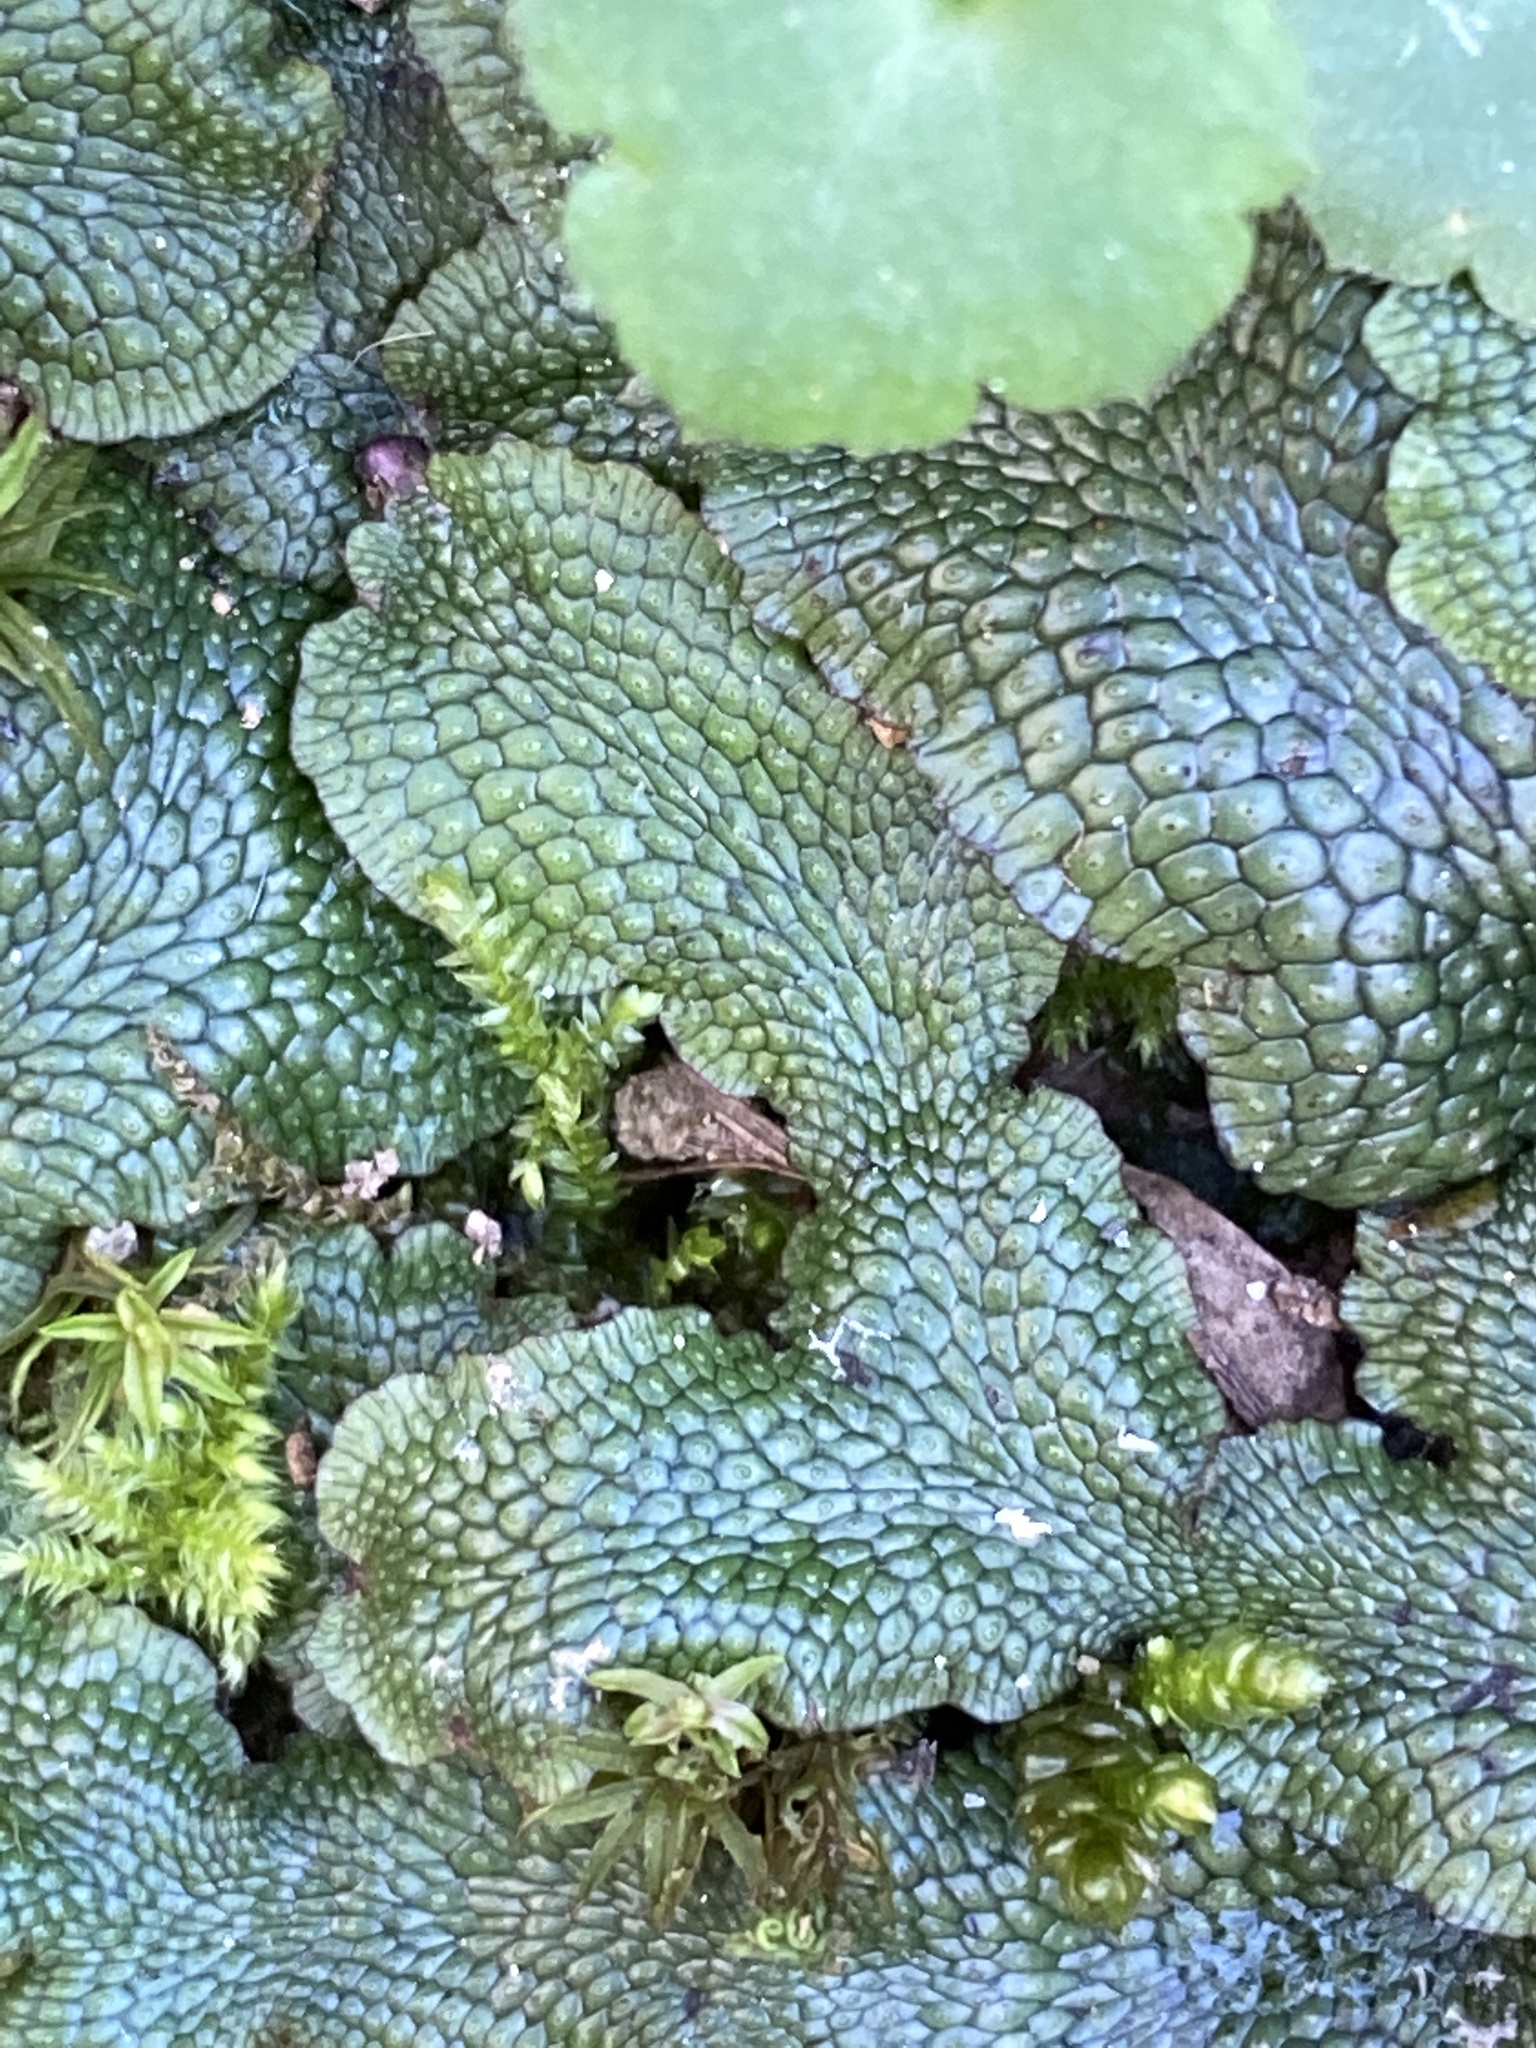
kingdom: Plantae
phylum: Marchantiophyta
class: Marchantiopsida
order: Marchantiales
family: Conocephalaceae
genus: Conocephalum
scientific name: Conocephalum salebrosum
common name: Cat-tongue liverwort
